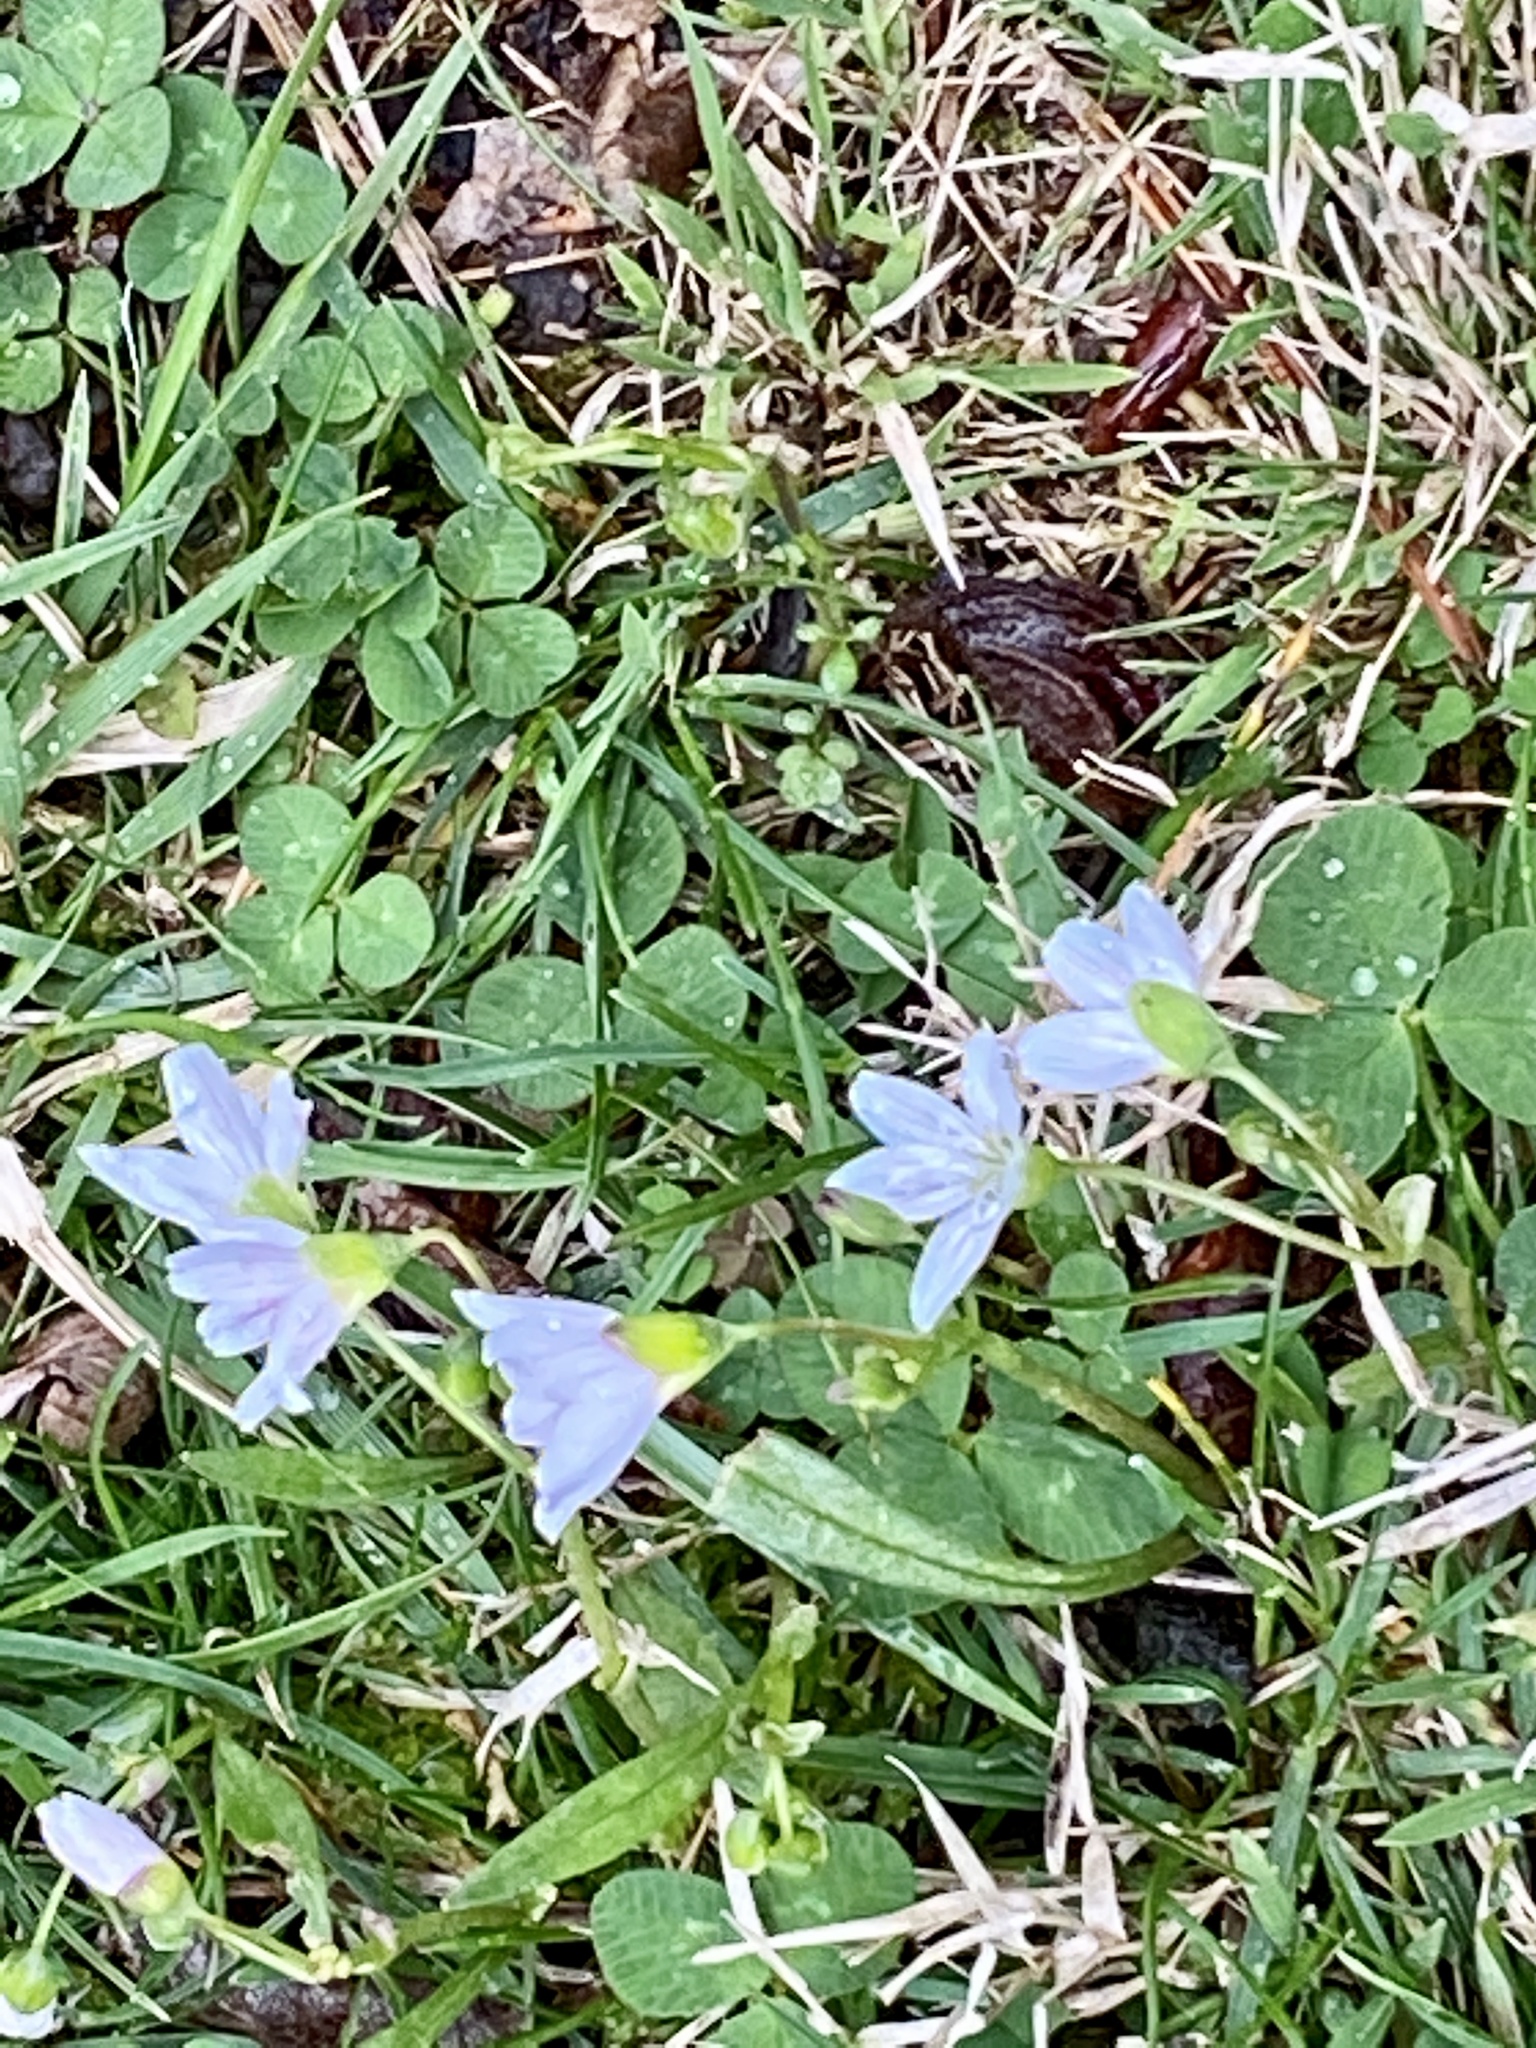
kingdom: Plantae
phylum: Tracheophyta
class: Magnoliopsida
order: Caryophyllales
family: Montiaceae
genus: Claytonia
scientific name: Claytonia virginica
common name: Virginia springbeauty
